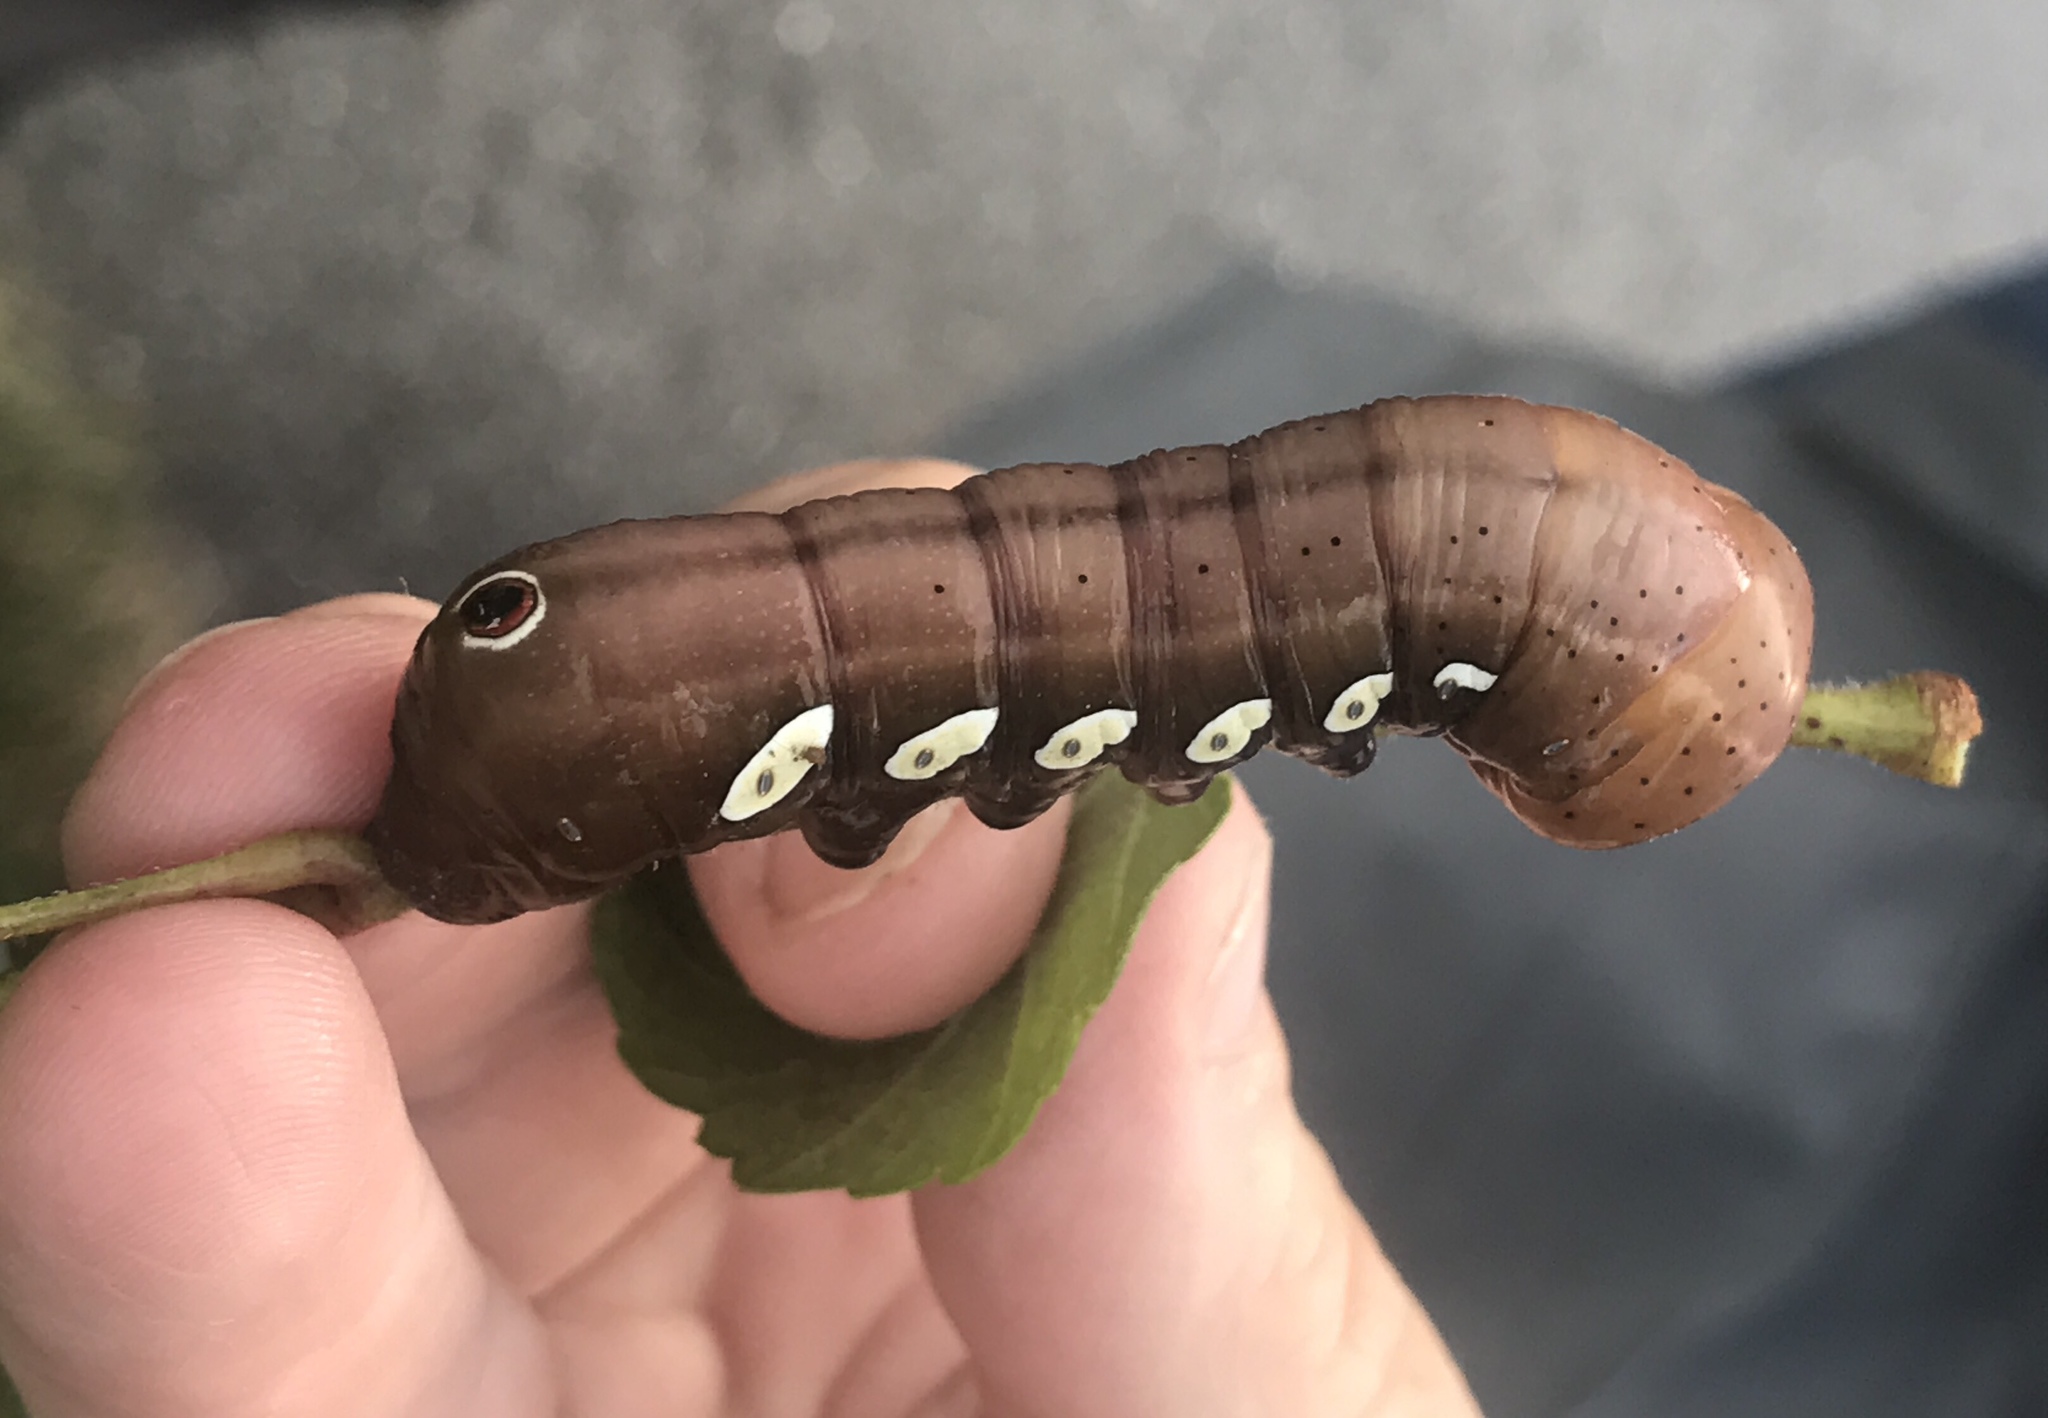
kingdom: Animalia
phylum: Arthropoda
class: Insecta
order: Lepidoptera
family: Sphingidae
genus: Eumorpha
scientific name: Eumorpha pandorus
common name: Pandora sphinx
